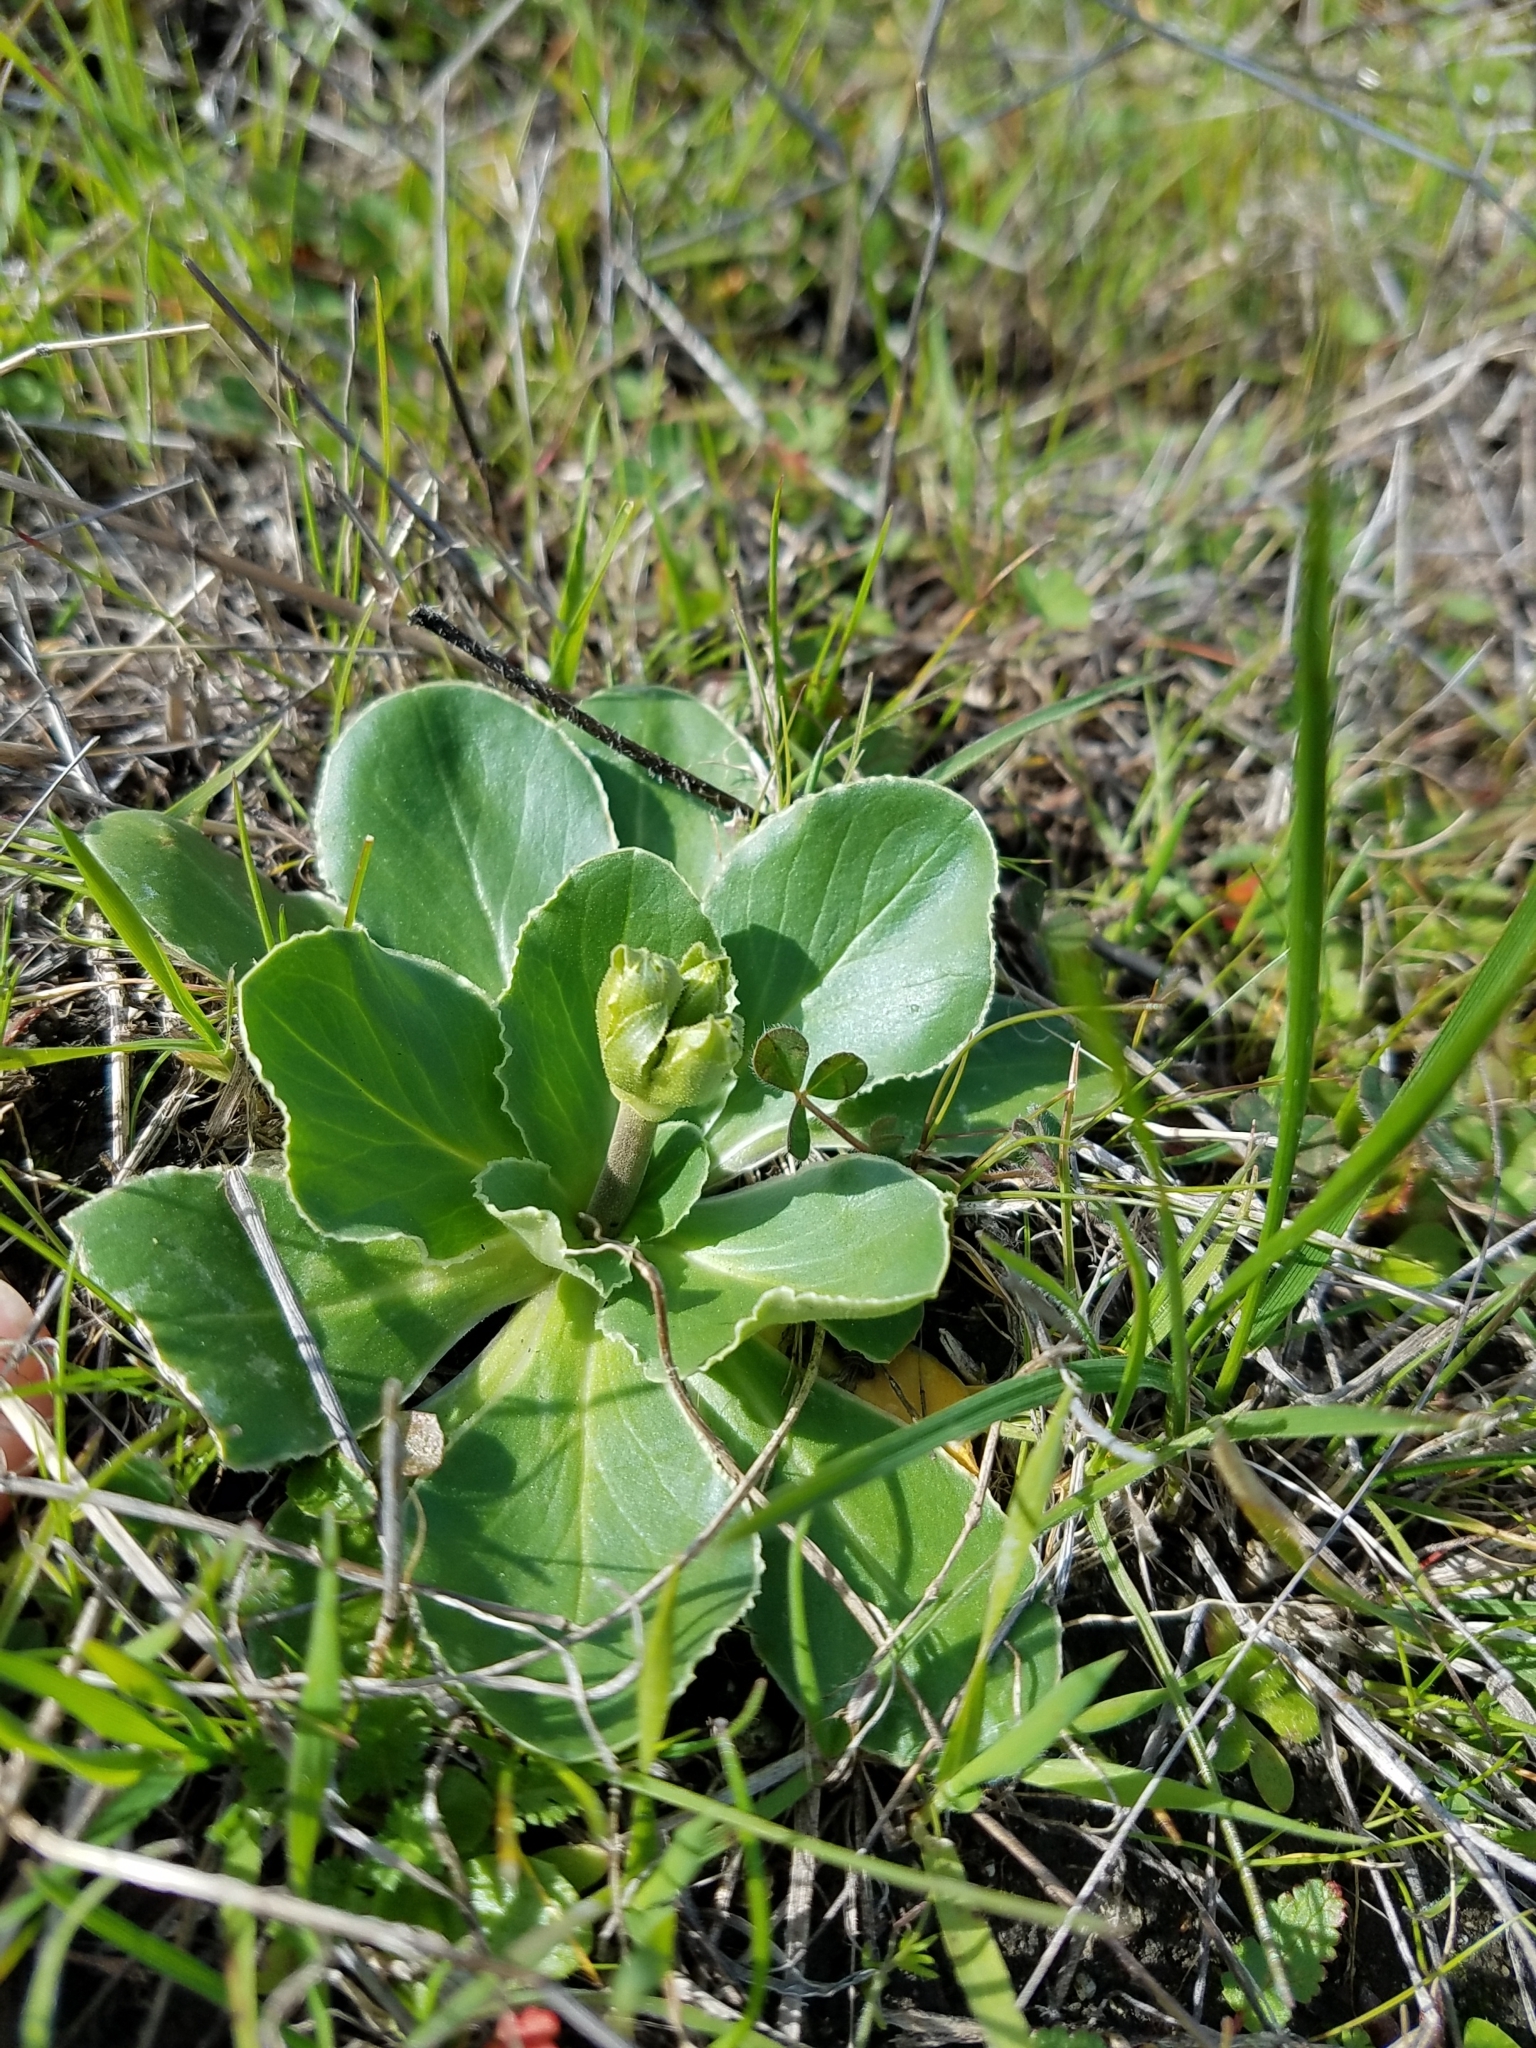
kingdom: Plantae
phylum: Tracheophyta
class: Magnoliopsida
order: Ericales
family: Primulaceae
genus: Dodecatheon
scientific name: Dodecatheon hendersonii
